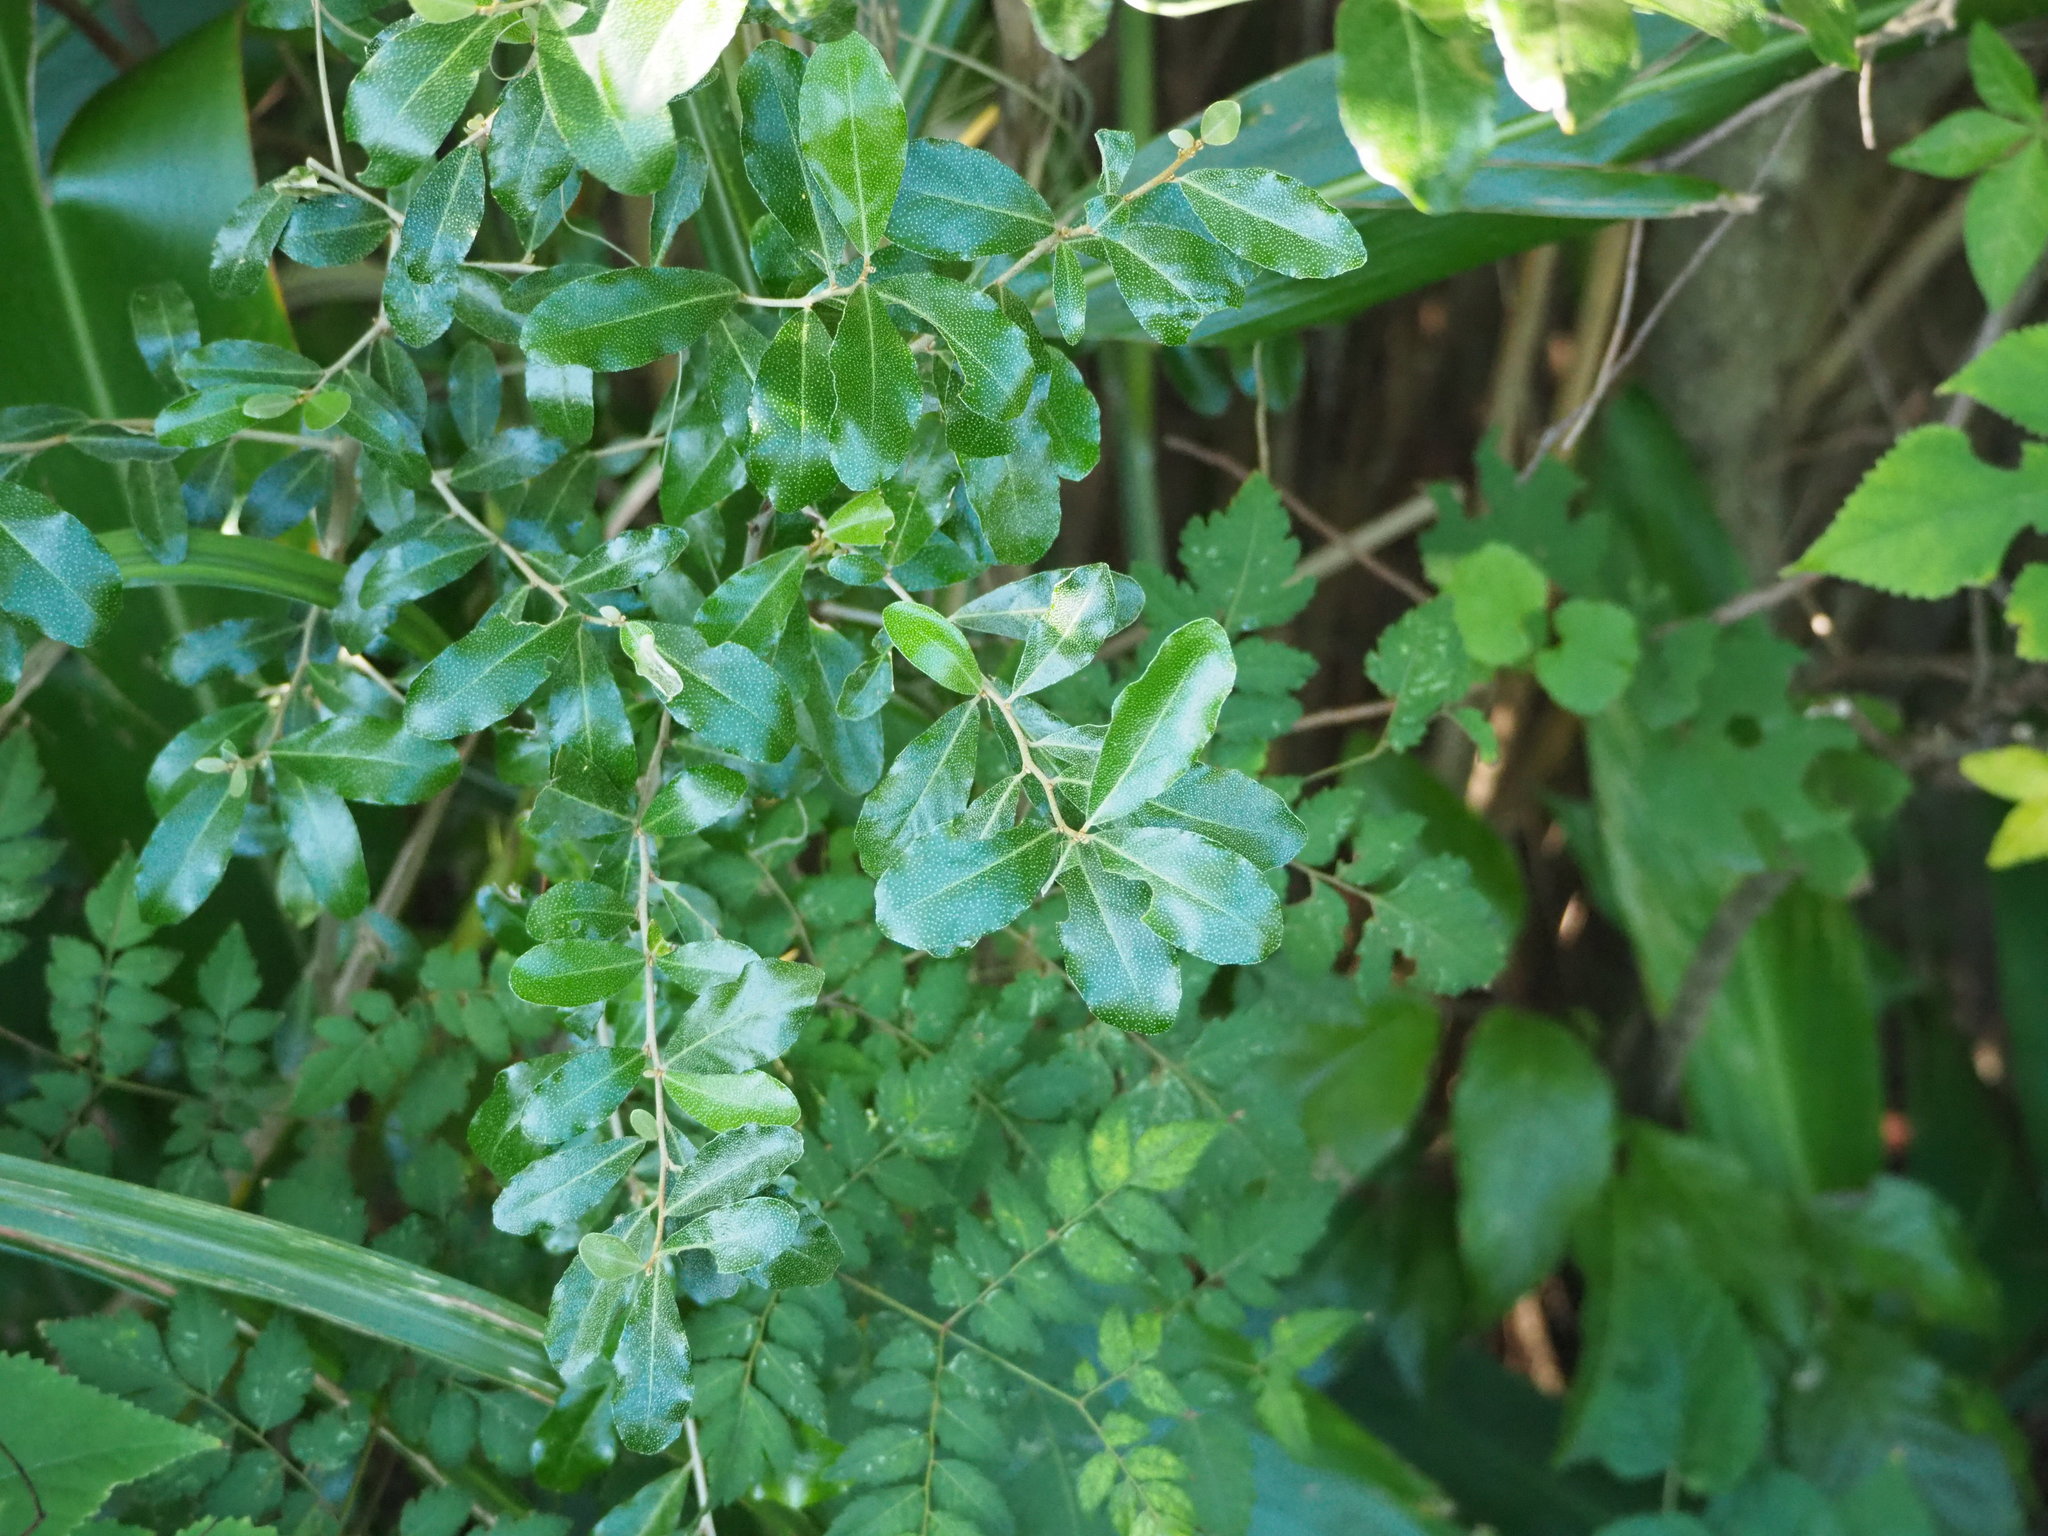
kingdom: Plantae
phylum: Tracheophyta
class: Magnoliopsida
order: Rosales
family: Elaeagnaceae
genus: Elaeagnus
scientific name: Elaeagnus oldhamii
